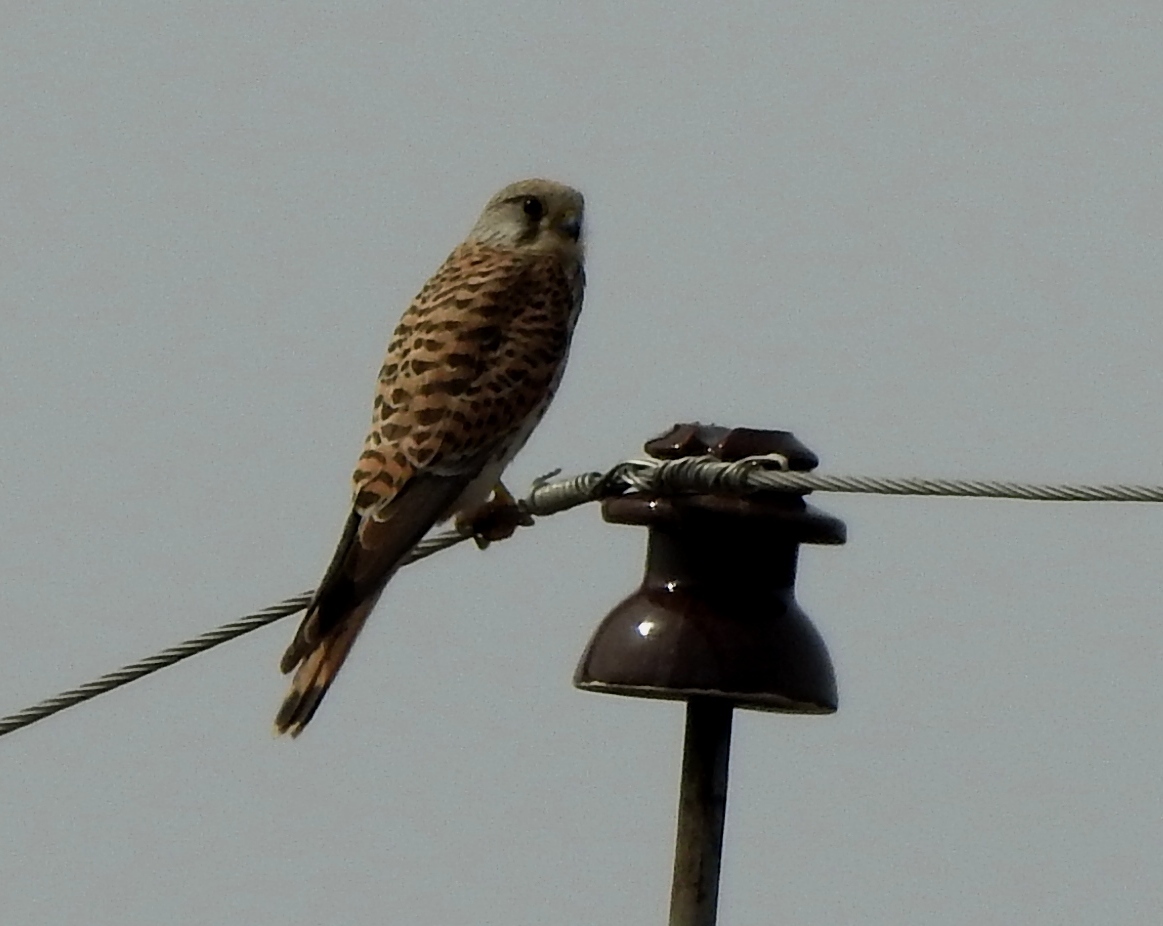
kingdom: Animalia
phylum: Chordata
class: Aves
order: Falconiformes
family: Falconidae
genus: Falco
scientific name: Falco tinnunculus
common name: Common kestrel
